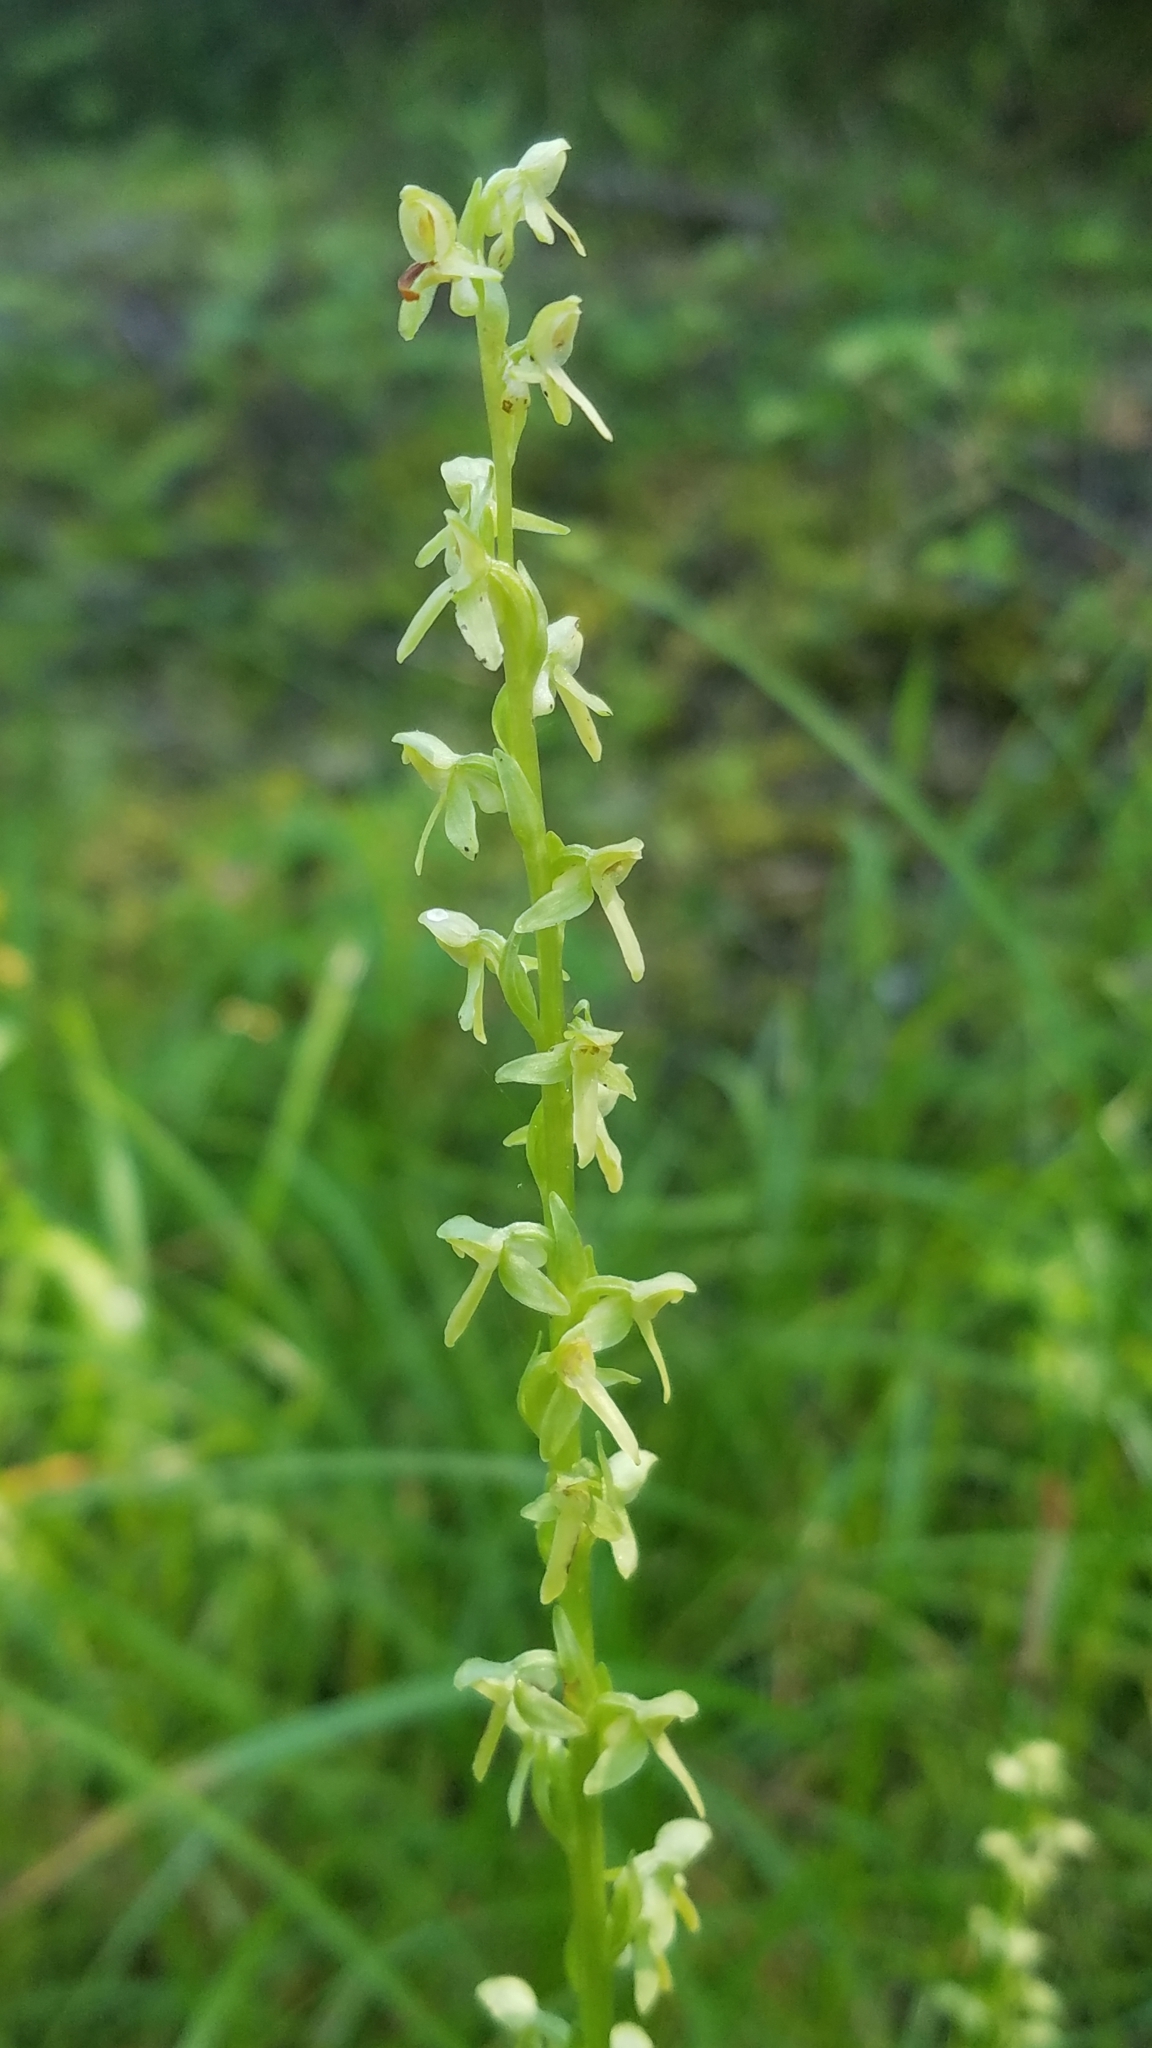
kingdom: Plantae
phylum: Tracheophyta
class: Liliopsida
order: Asparagales
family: Orchidaceae
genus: Platanthera
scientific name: Platanthera stricta
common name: Slender bog orchid
